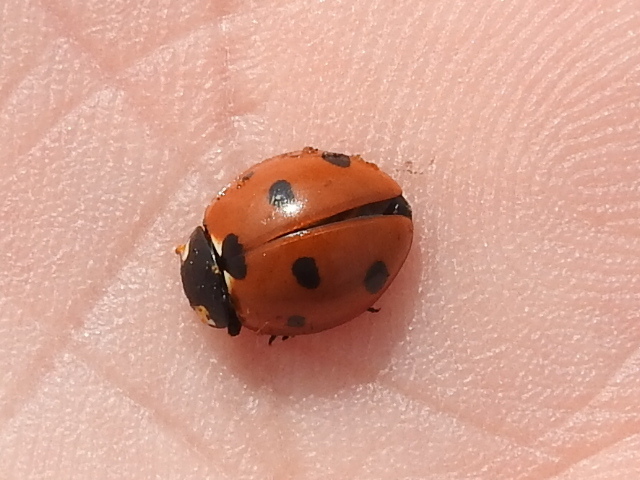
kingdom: Animalia
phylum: Arthropoda
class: Insecta
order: Coleoptera
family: Coccinellidae
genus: Coccinella
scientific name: Coccinella septempunctata
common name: Sevenspotted lady beetle
